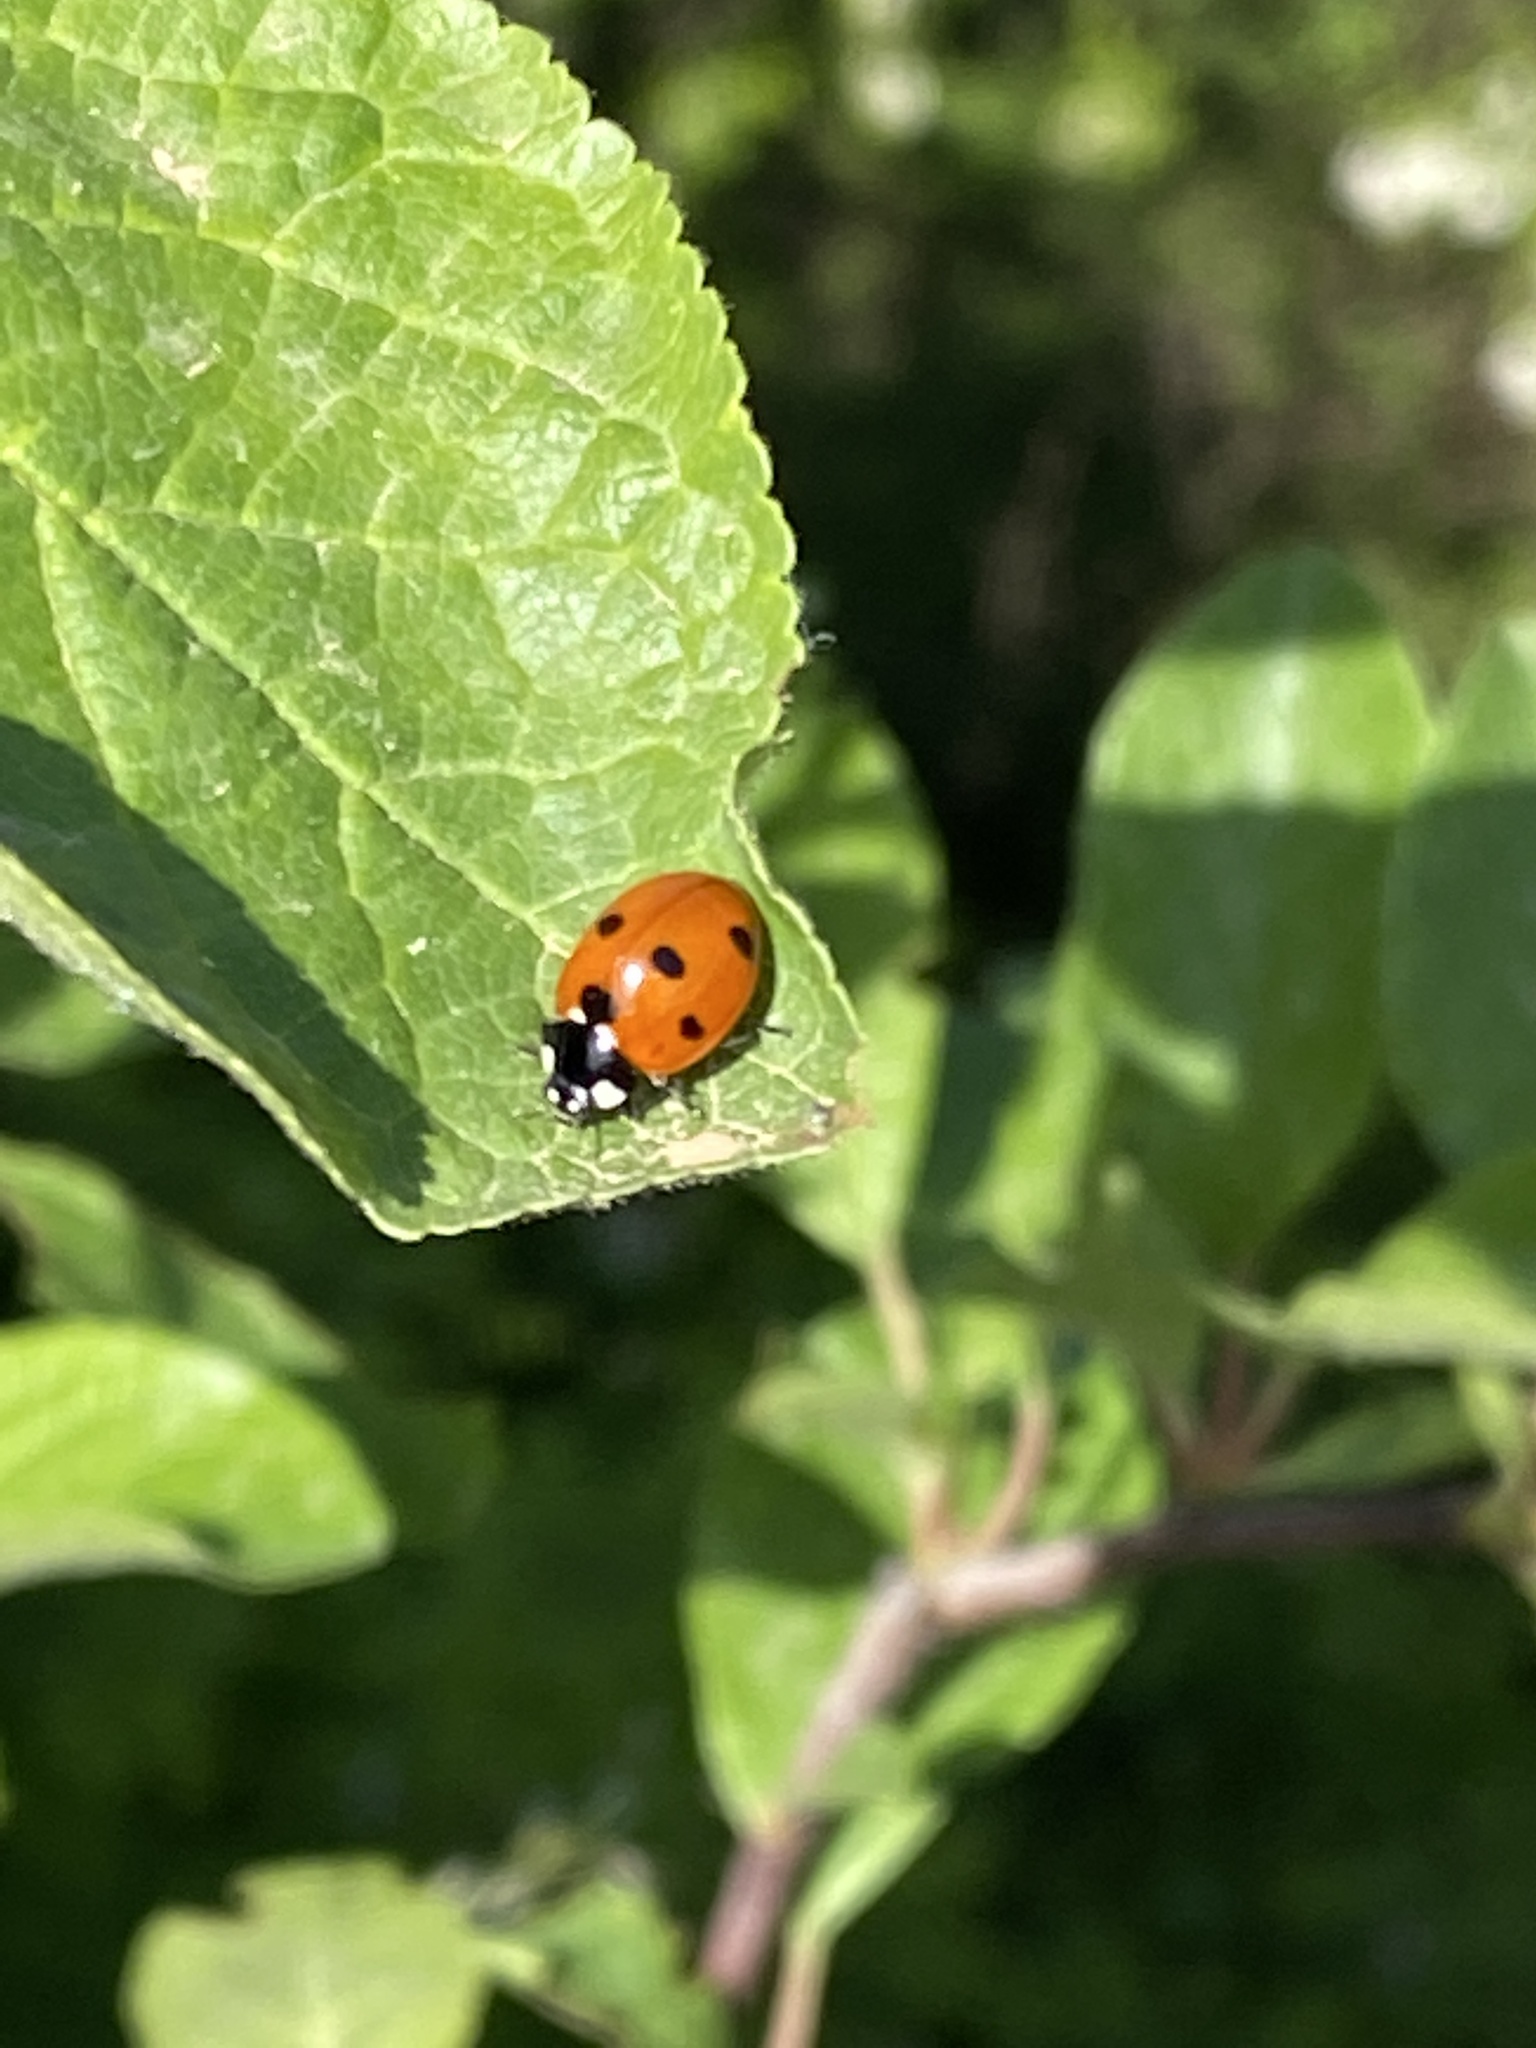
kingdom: Animalia
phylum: Arthropoda
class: Insecta
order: Coleoptera
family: Coccinellidae
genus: Coccinella
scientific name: Coccinella septempunctata
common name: Sevenspotted lady beetle
